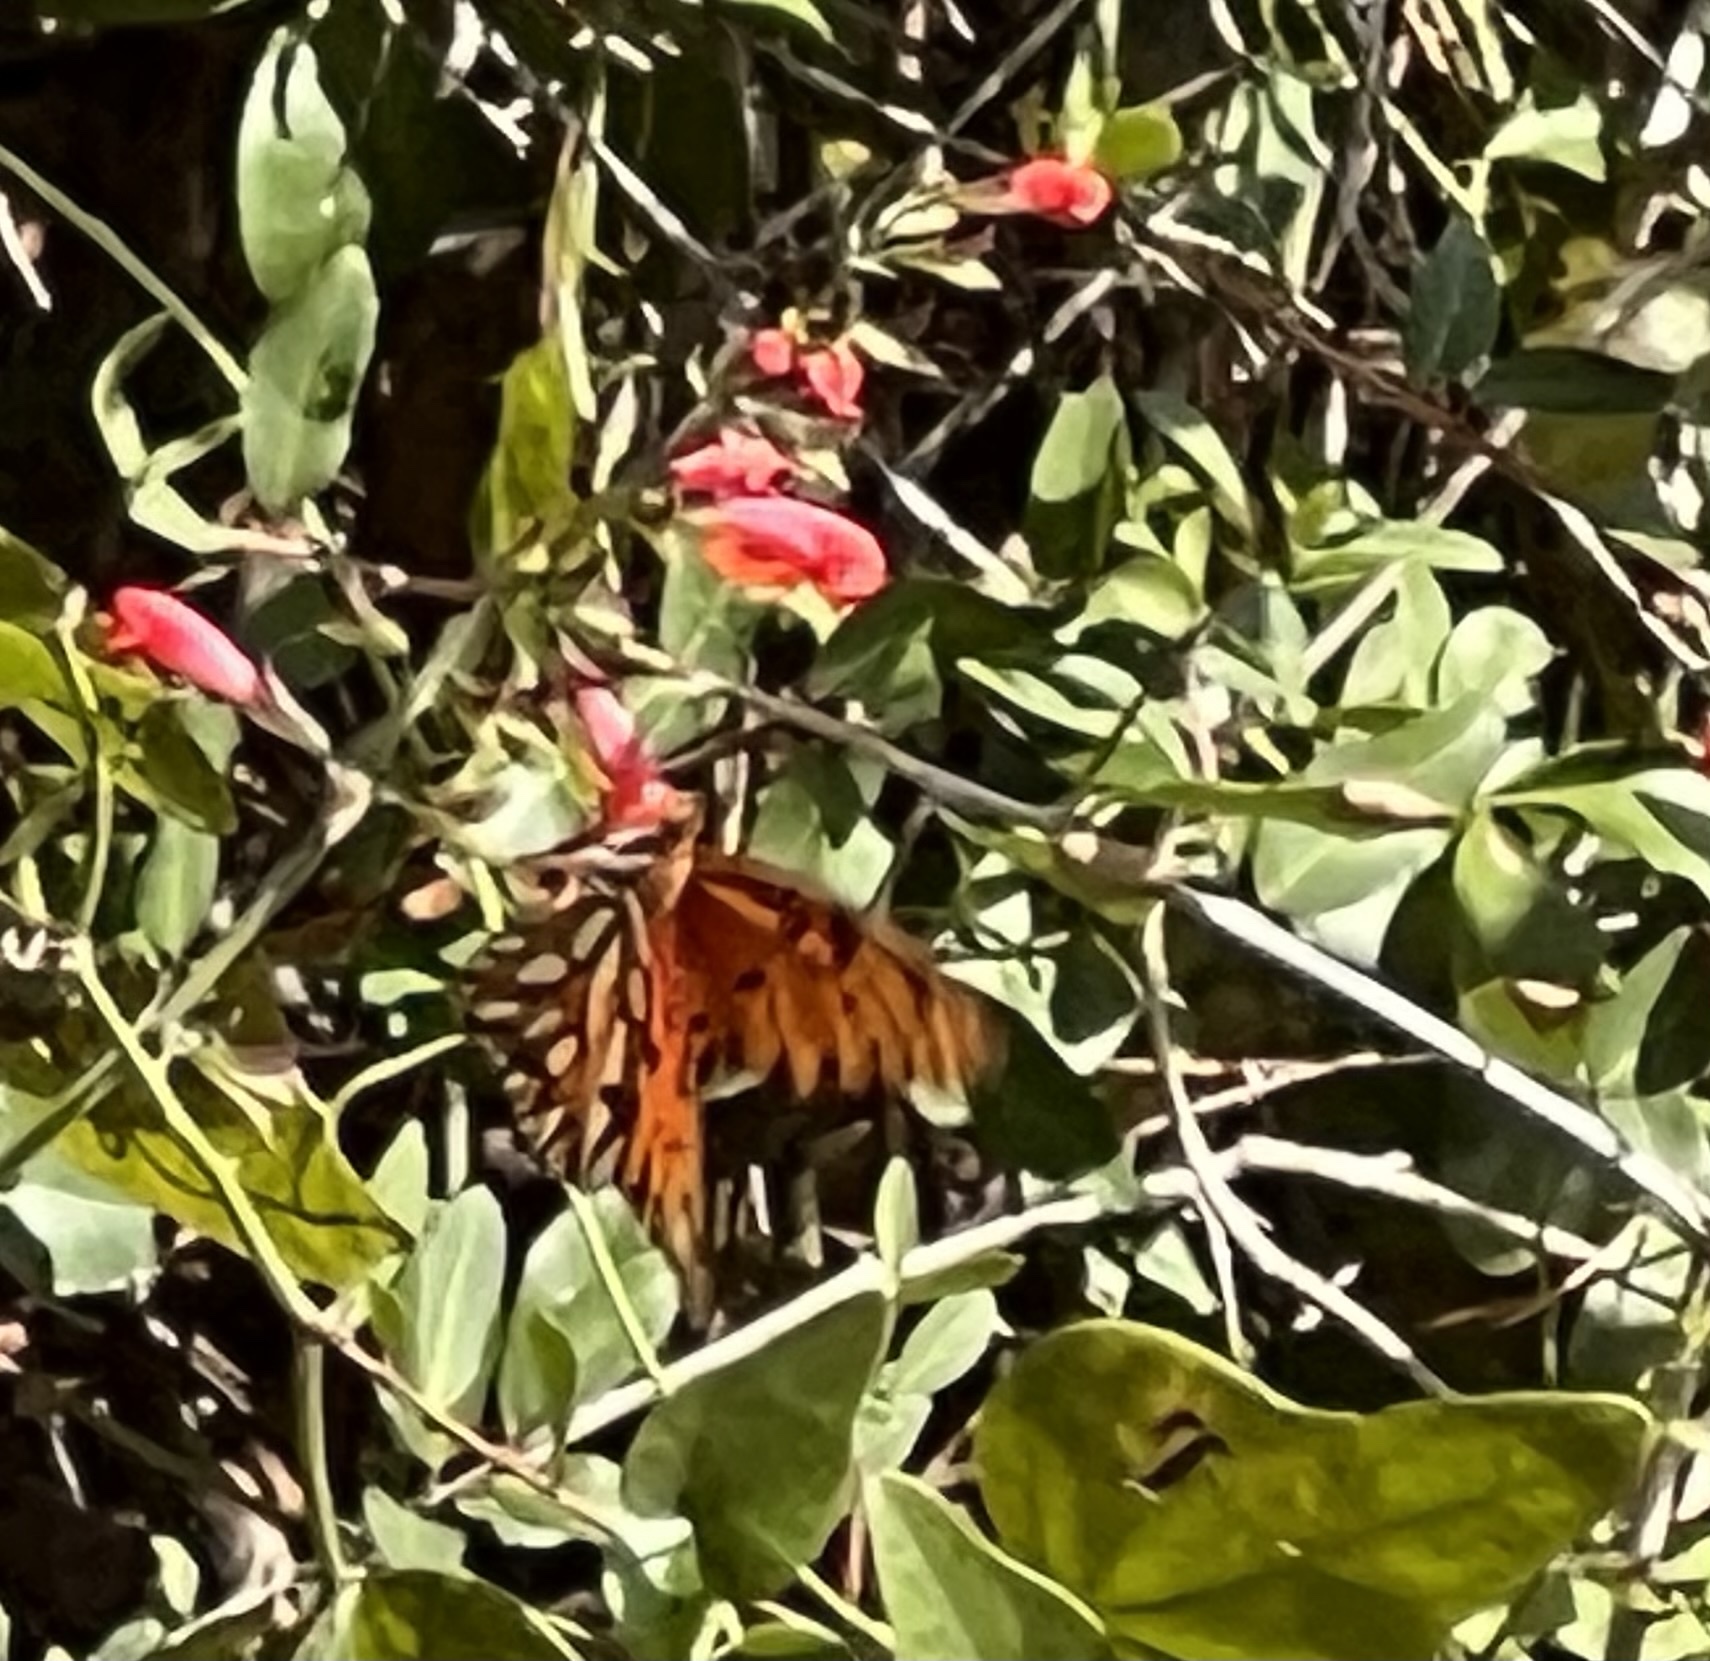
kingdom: Animalia
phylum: Arthropoda
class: Insecta
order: Lepidoptera
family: Nymphalidae
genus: Dione
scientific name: Dione vanillae
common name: Gulf fritillary
